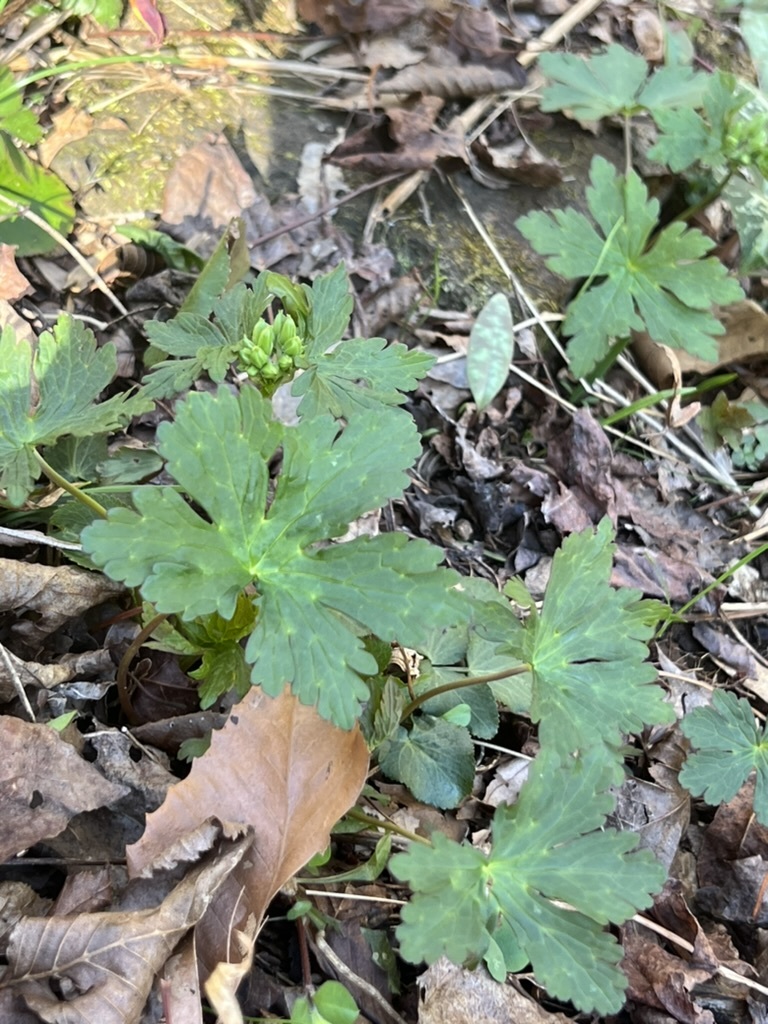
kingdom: Plantae
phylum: Tracheophyta
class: Magnoliopsida
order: Geraniales
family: Geraniaceae
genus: Geranium
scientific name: Geranium maculatum
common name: Spotted geranium
